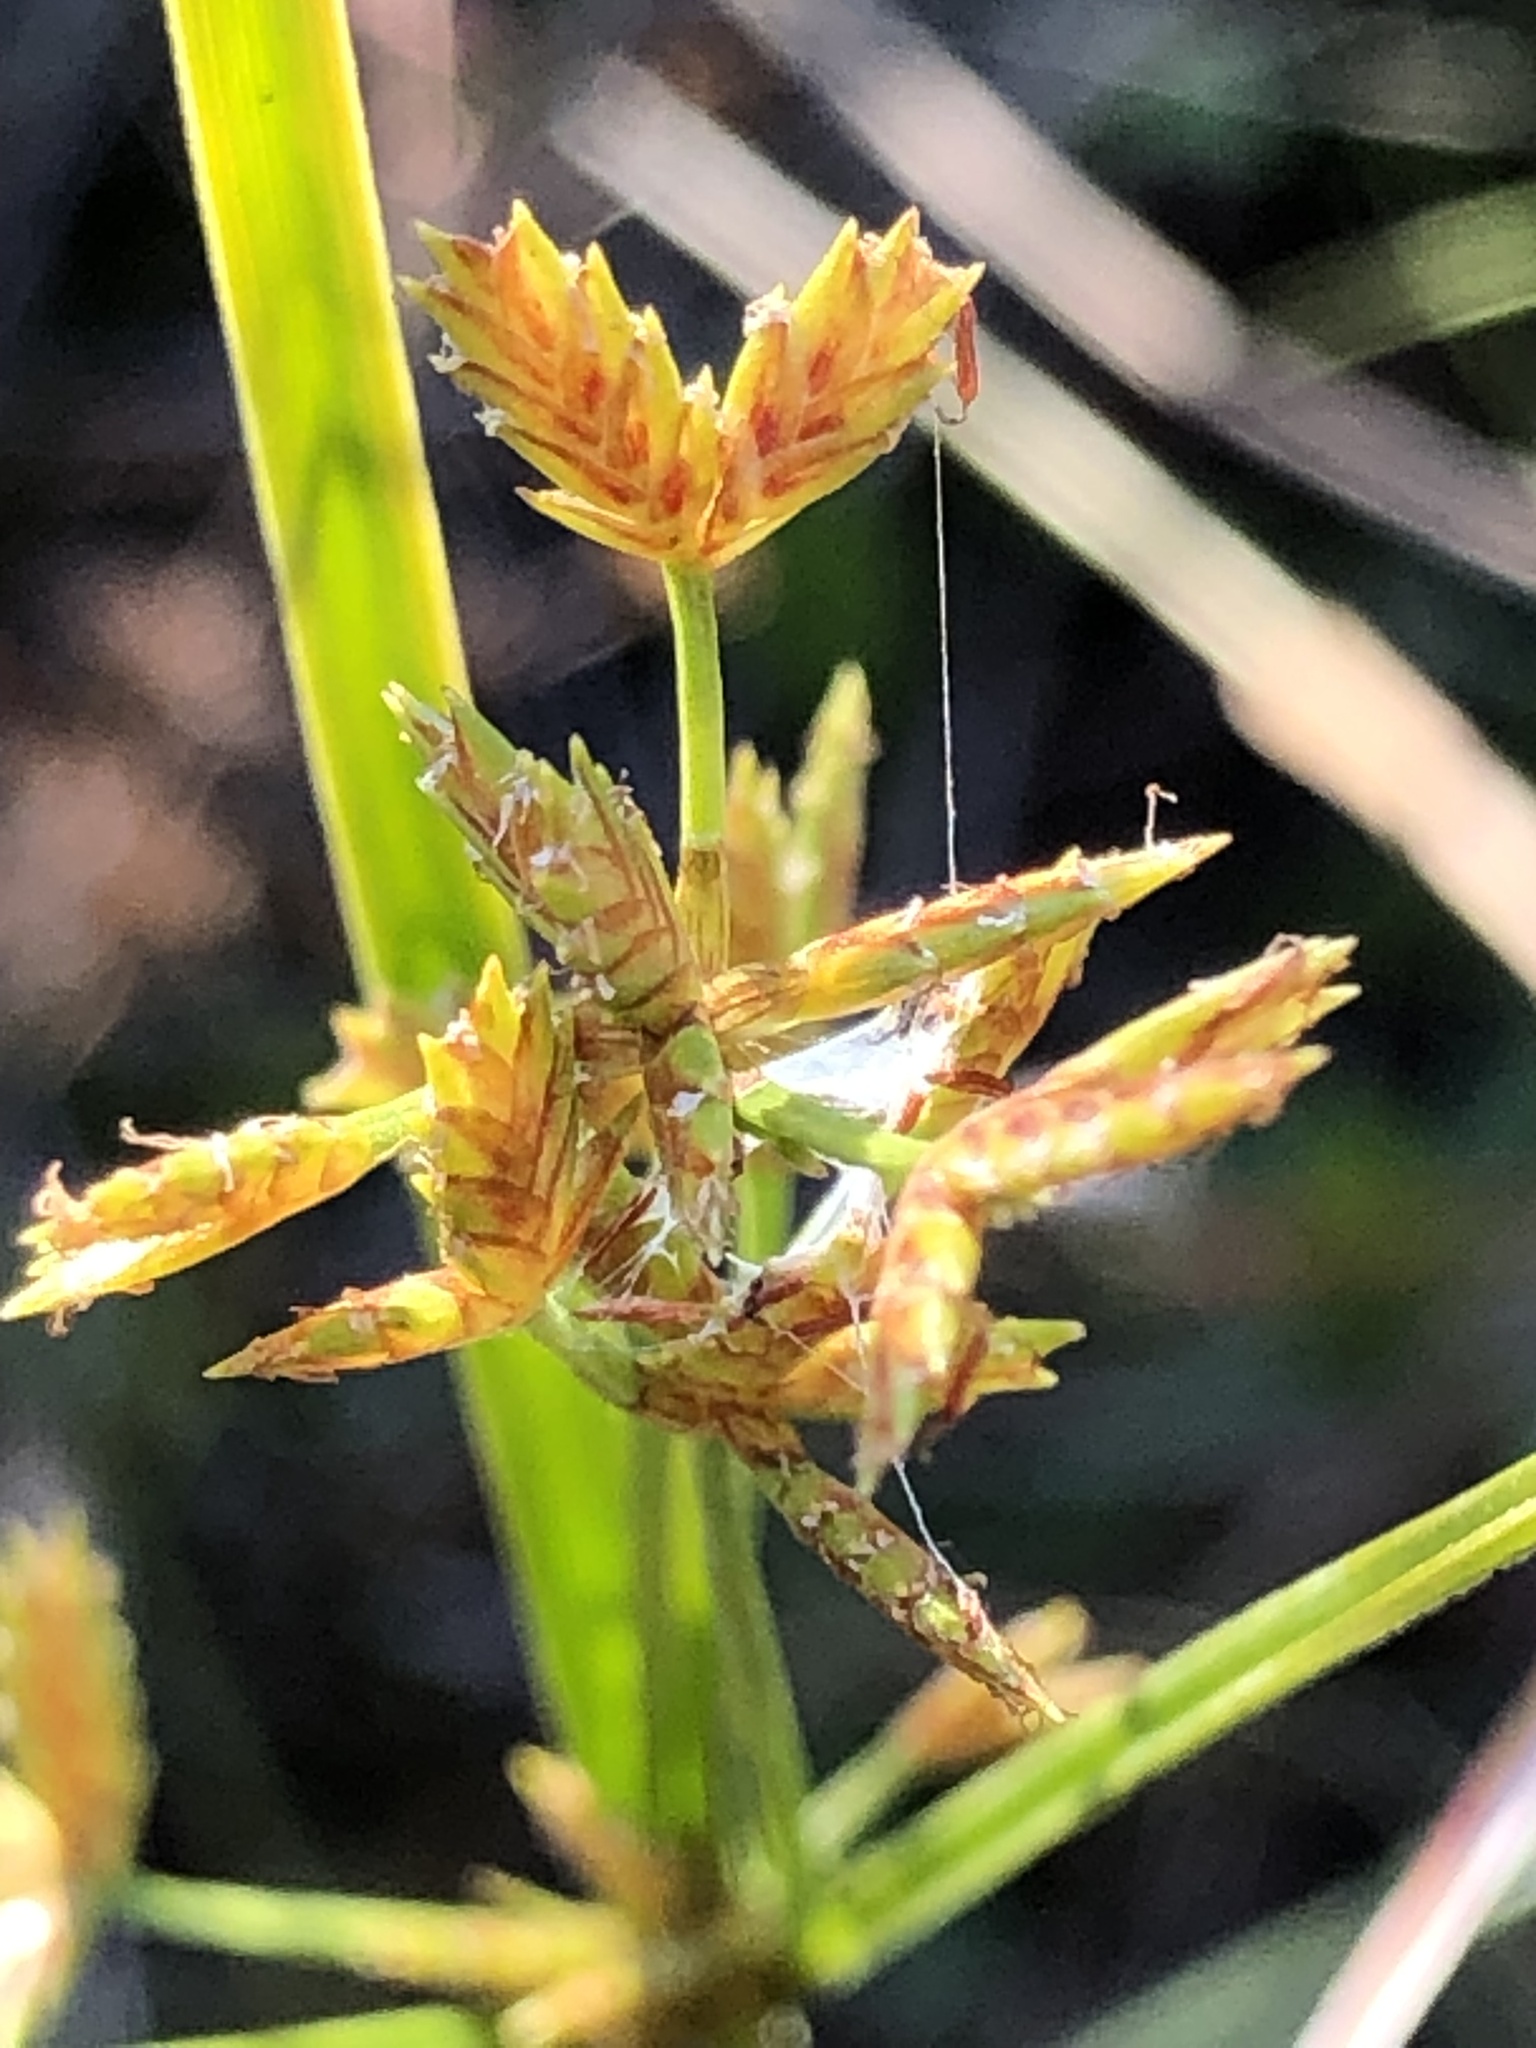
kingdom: Plantae
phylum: Tracheophyta
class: Liliopsida
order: Poales
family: Cyperaceae
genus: Cyperus
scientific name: Cyperus dentatus
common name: Dentate umbrella sedge
